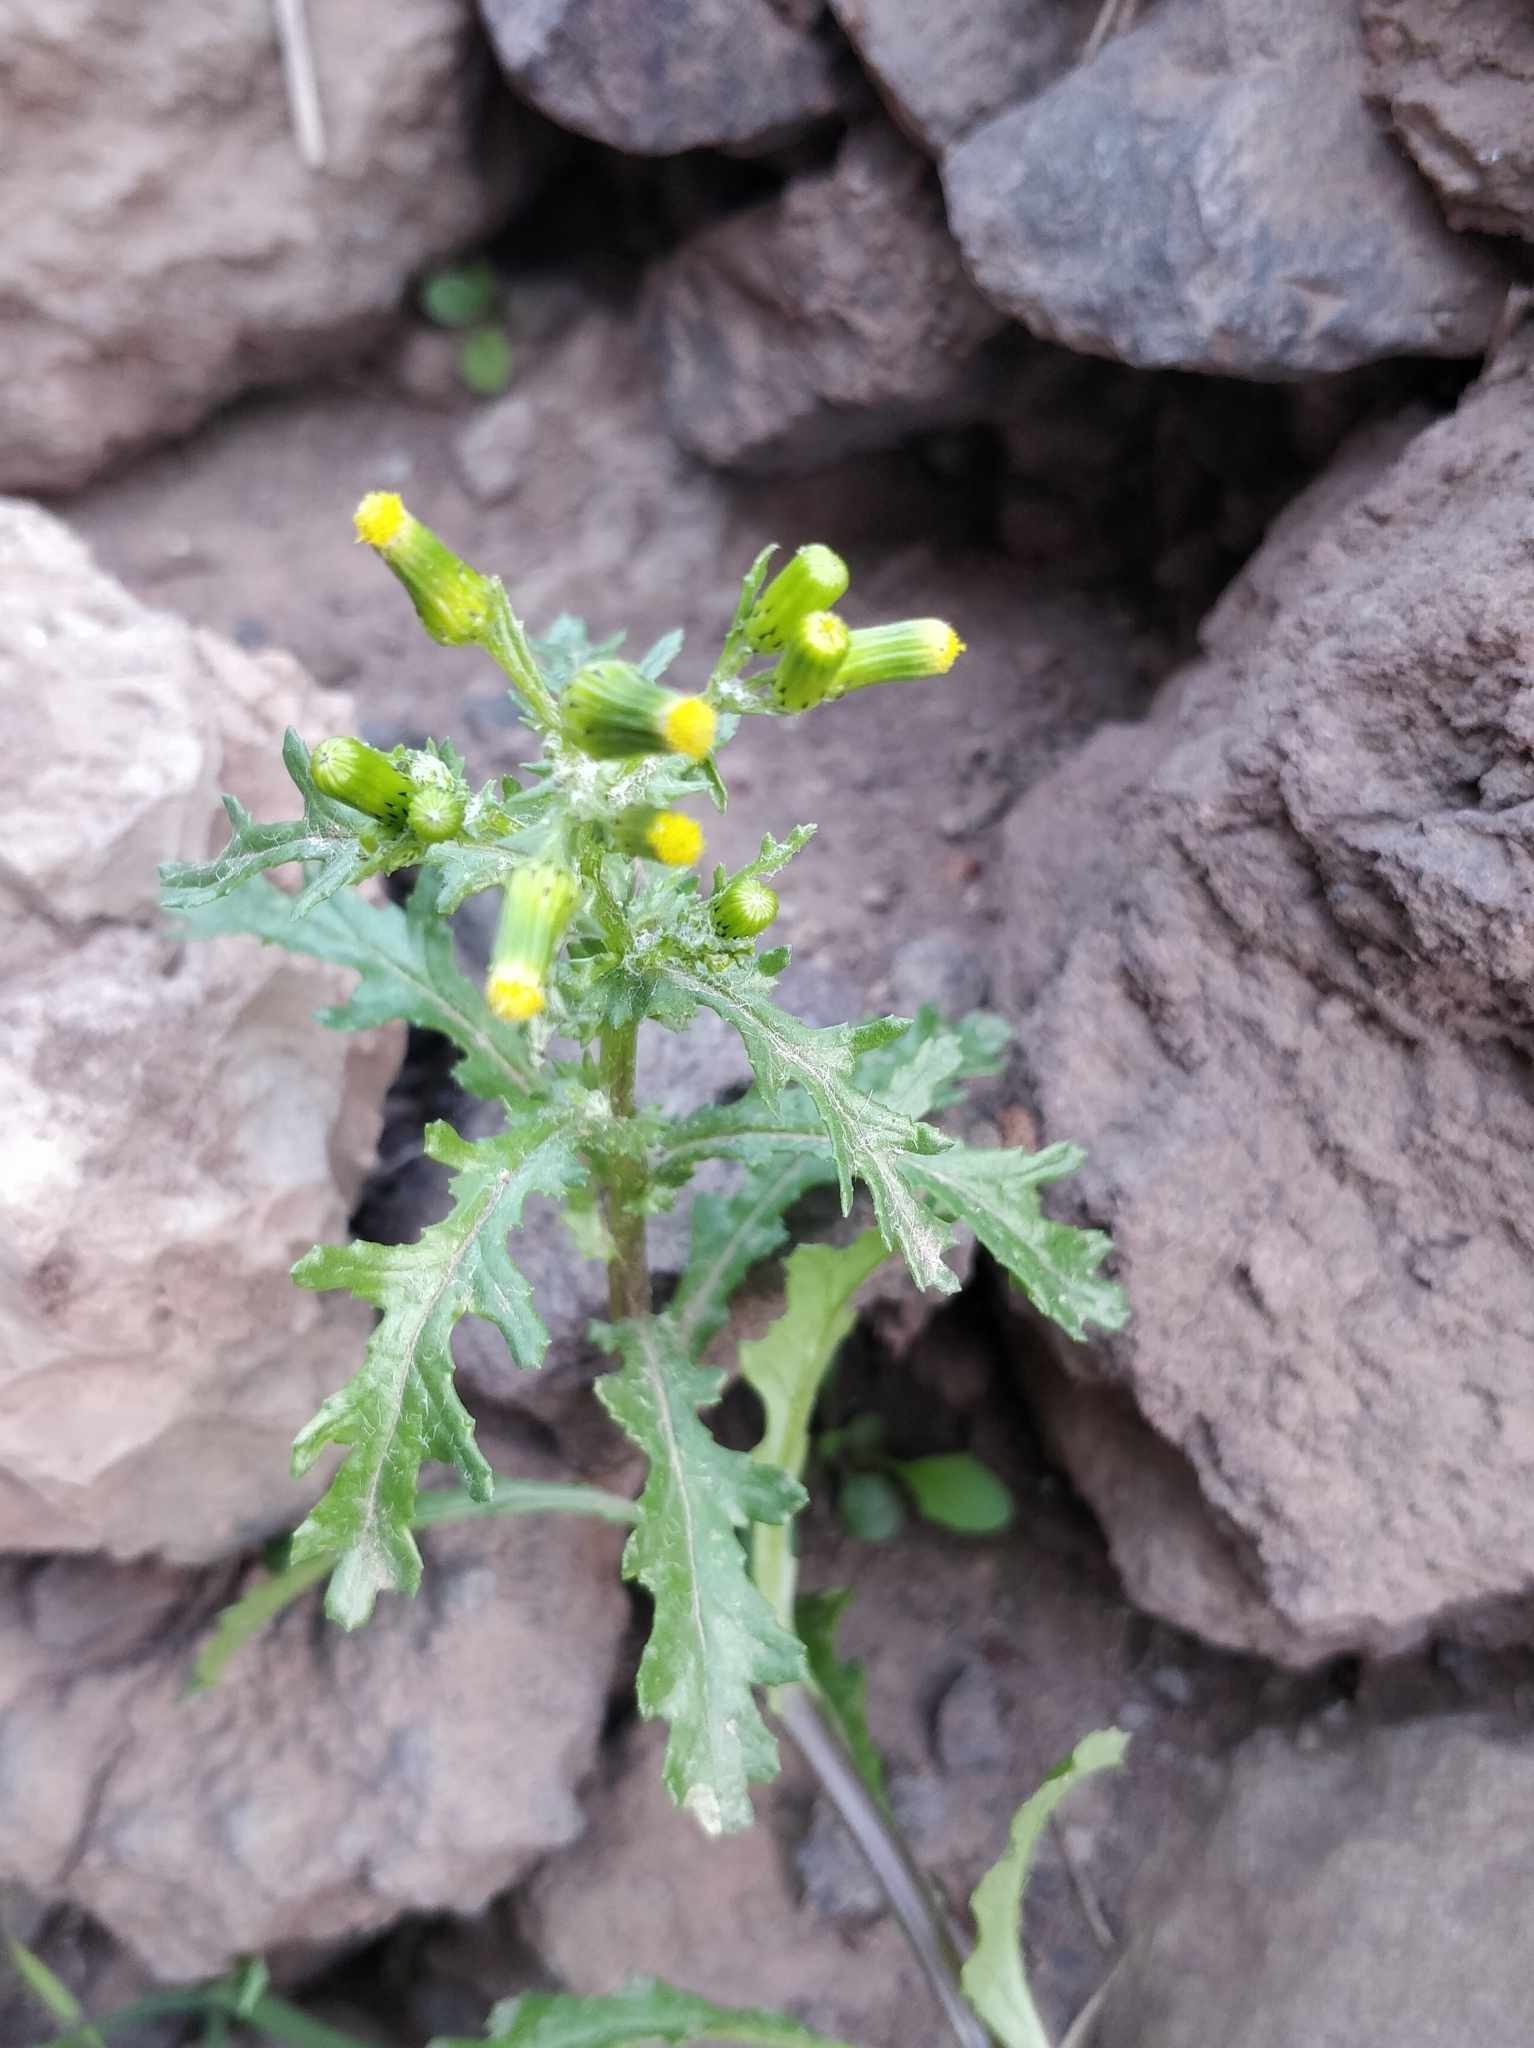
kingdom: Plantae
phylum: Tracheophyta
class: Magnoliopsida
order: Asterales
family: Asteraceae
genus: Senecio
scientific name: Senecio vulgaris
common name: Old-man-in-the-spring
